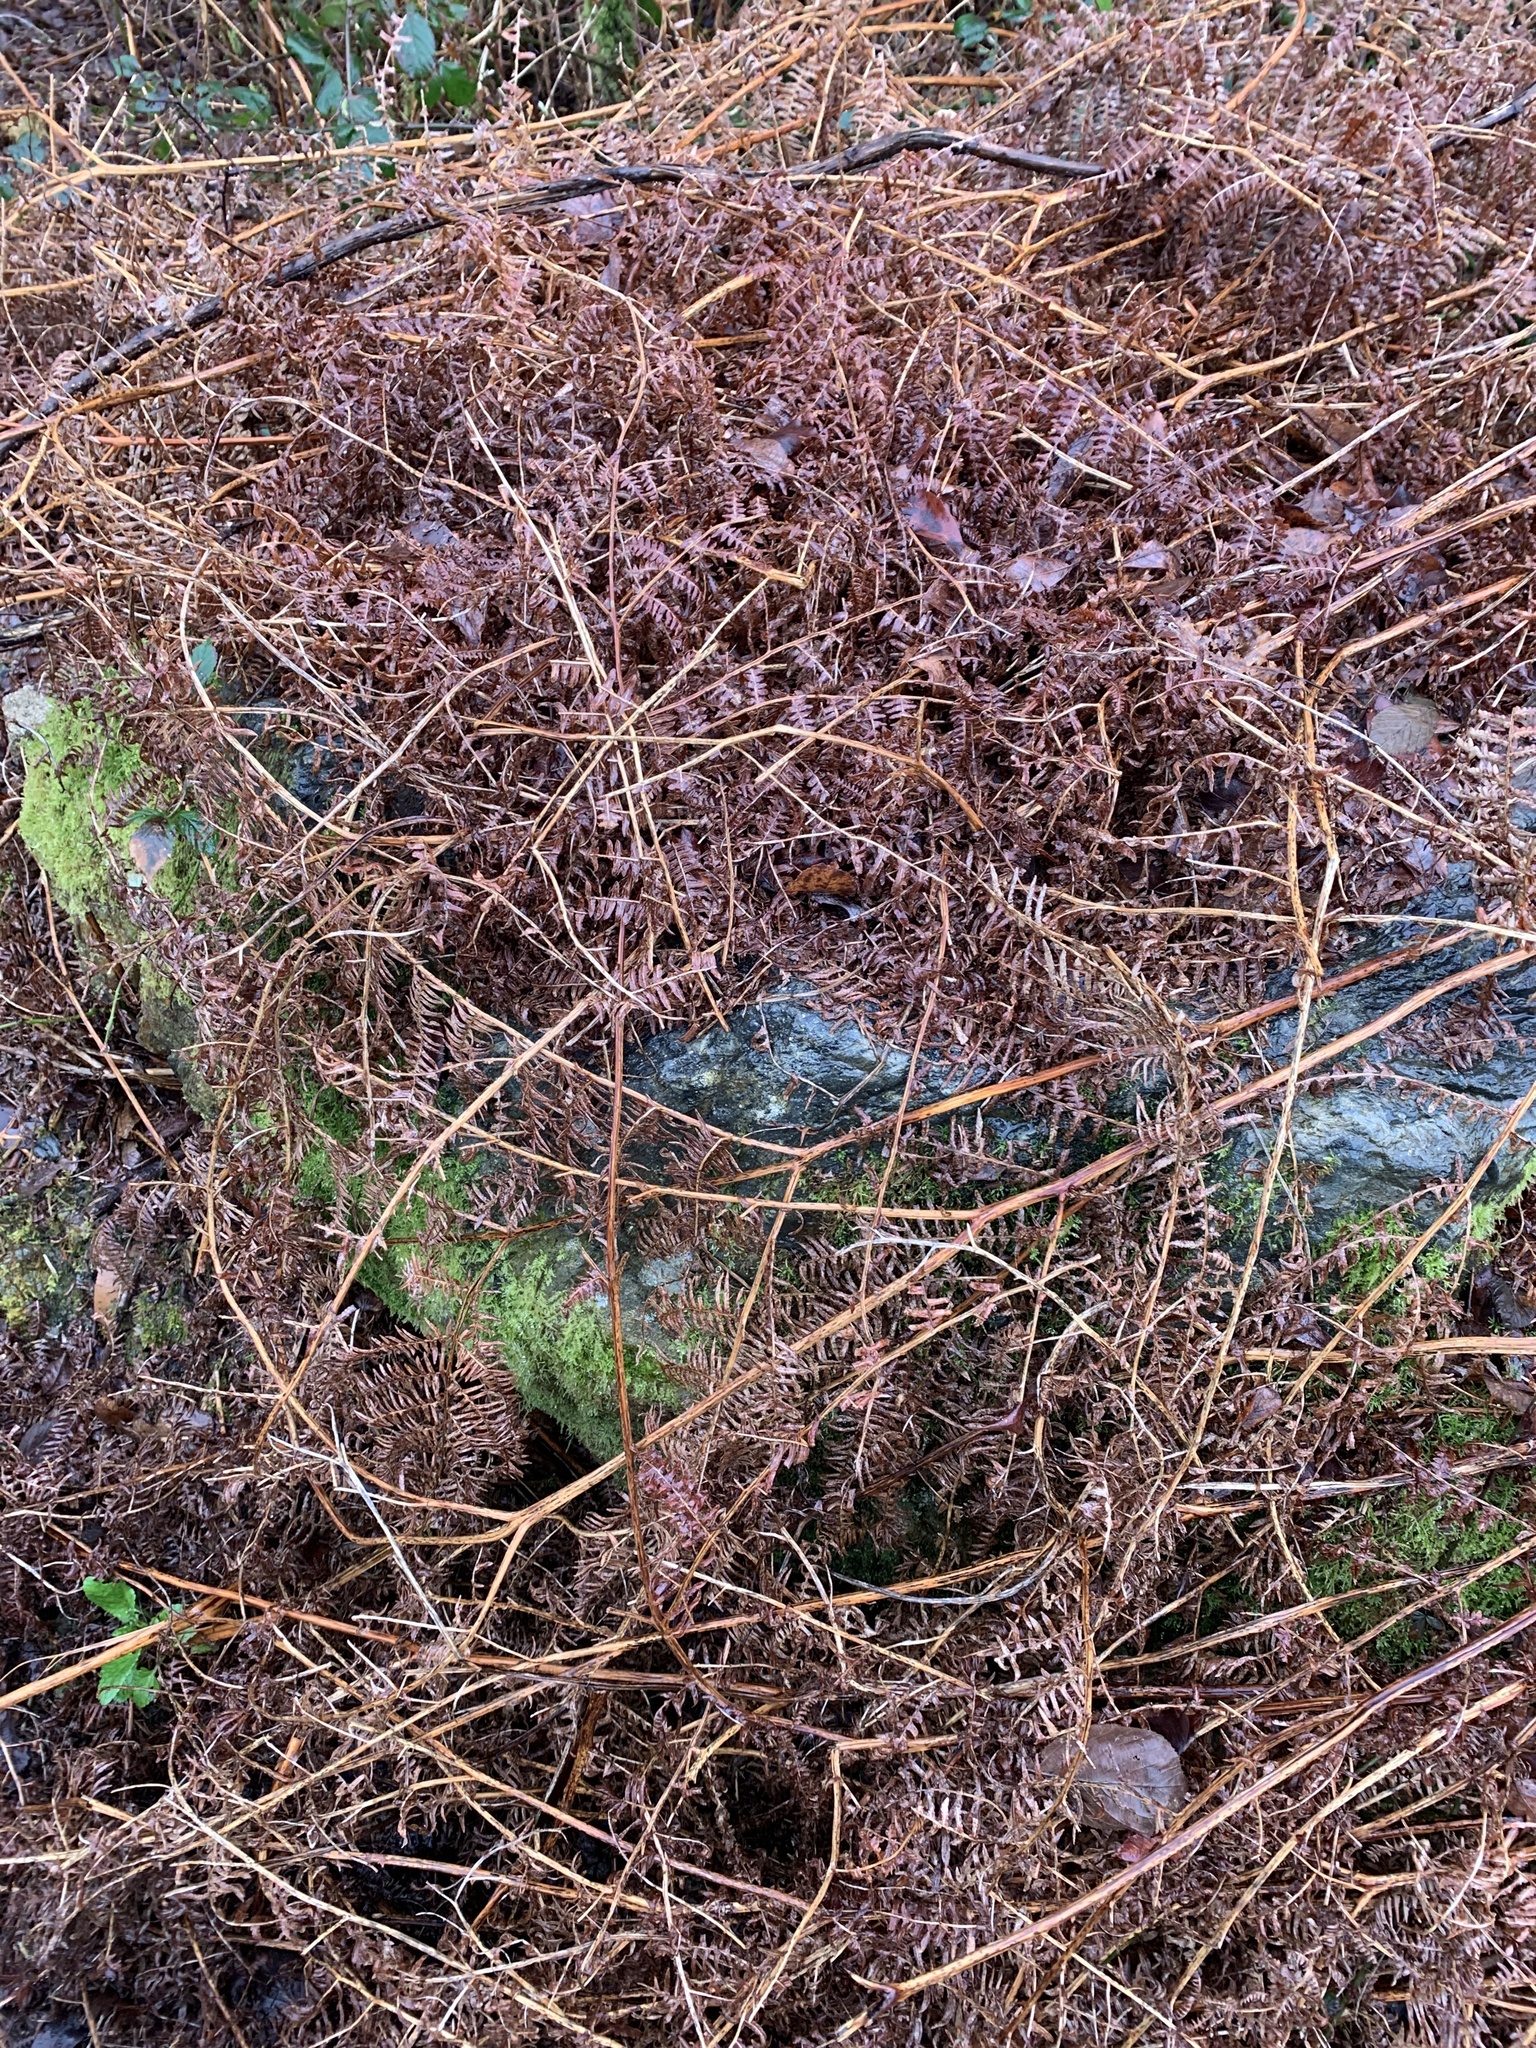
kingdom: Plantae
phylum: Tracheophyta
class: Polypodiopsida
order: Polypodiales
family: Dennstaedtiaceae
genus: Pteridium
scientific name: Pteridium aquilinum
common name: Bracken
